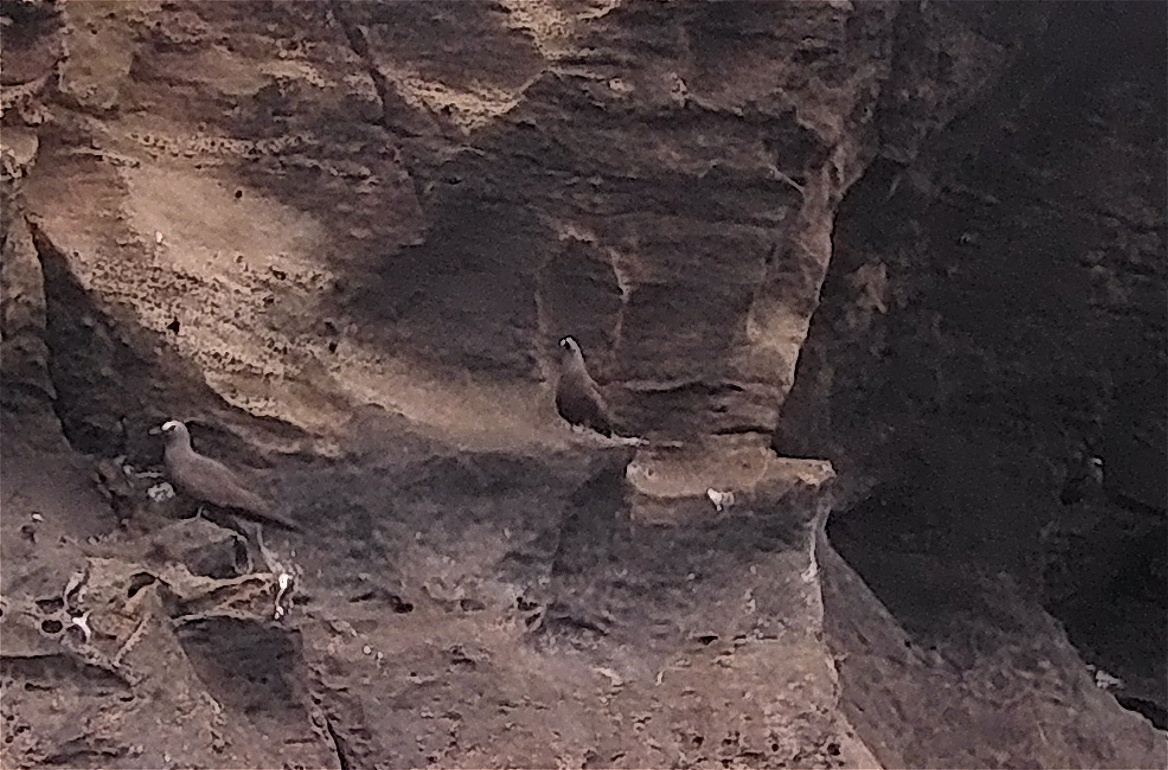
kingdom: Animalia
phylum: Chordata
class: Aves
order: Charadriiformes
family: Laridae
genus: Anous
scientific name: Anous stolidus
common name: Brown noddy
